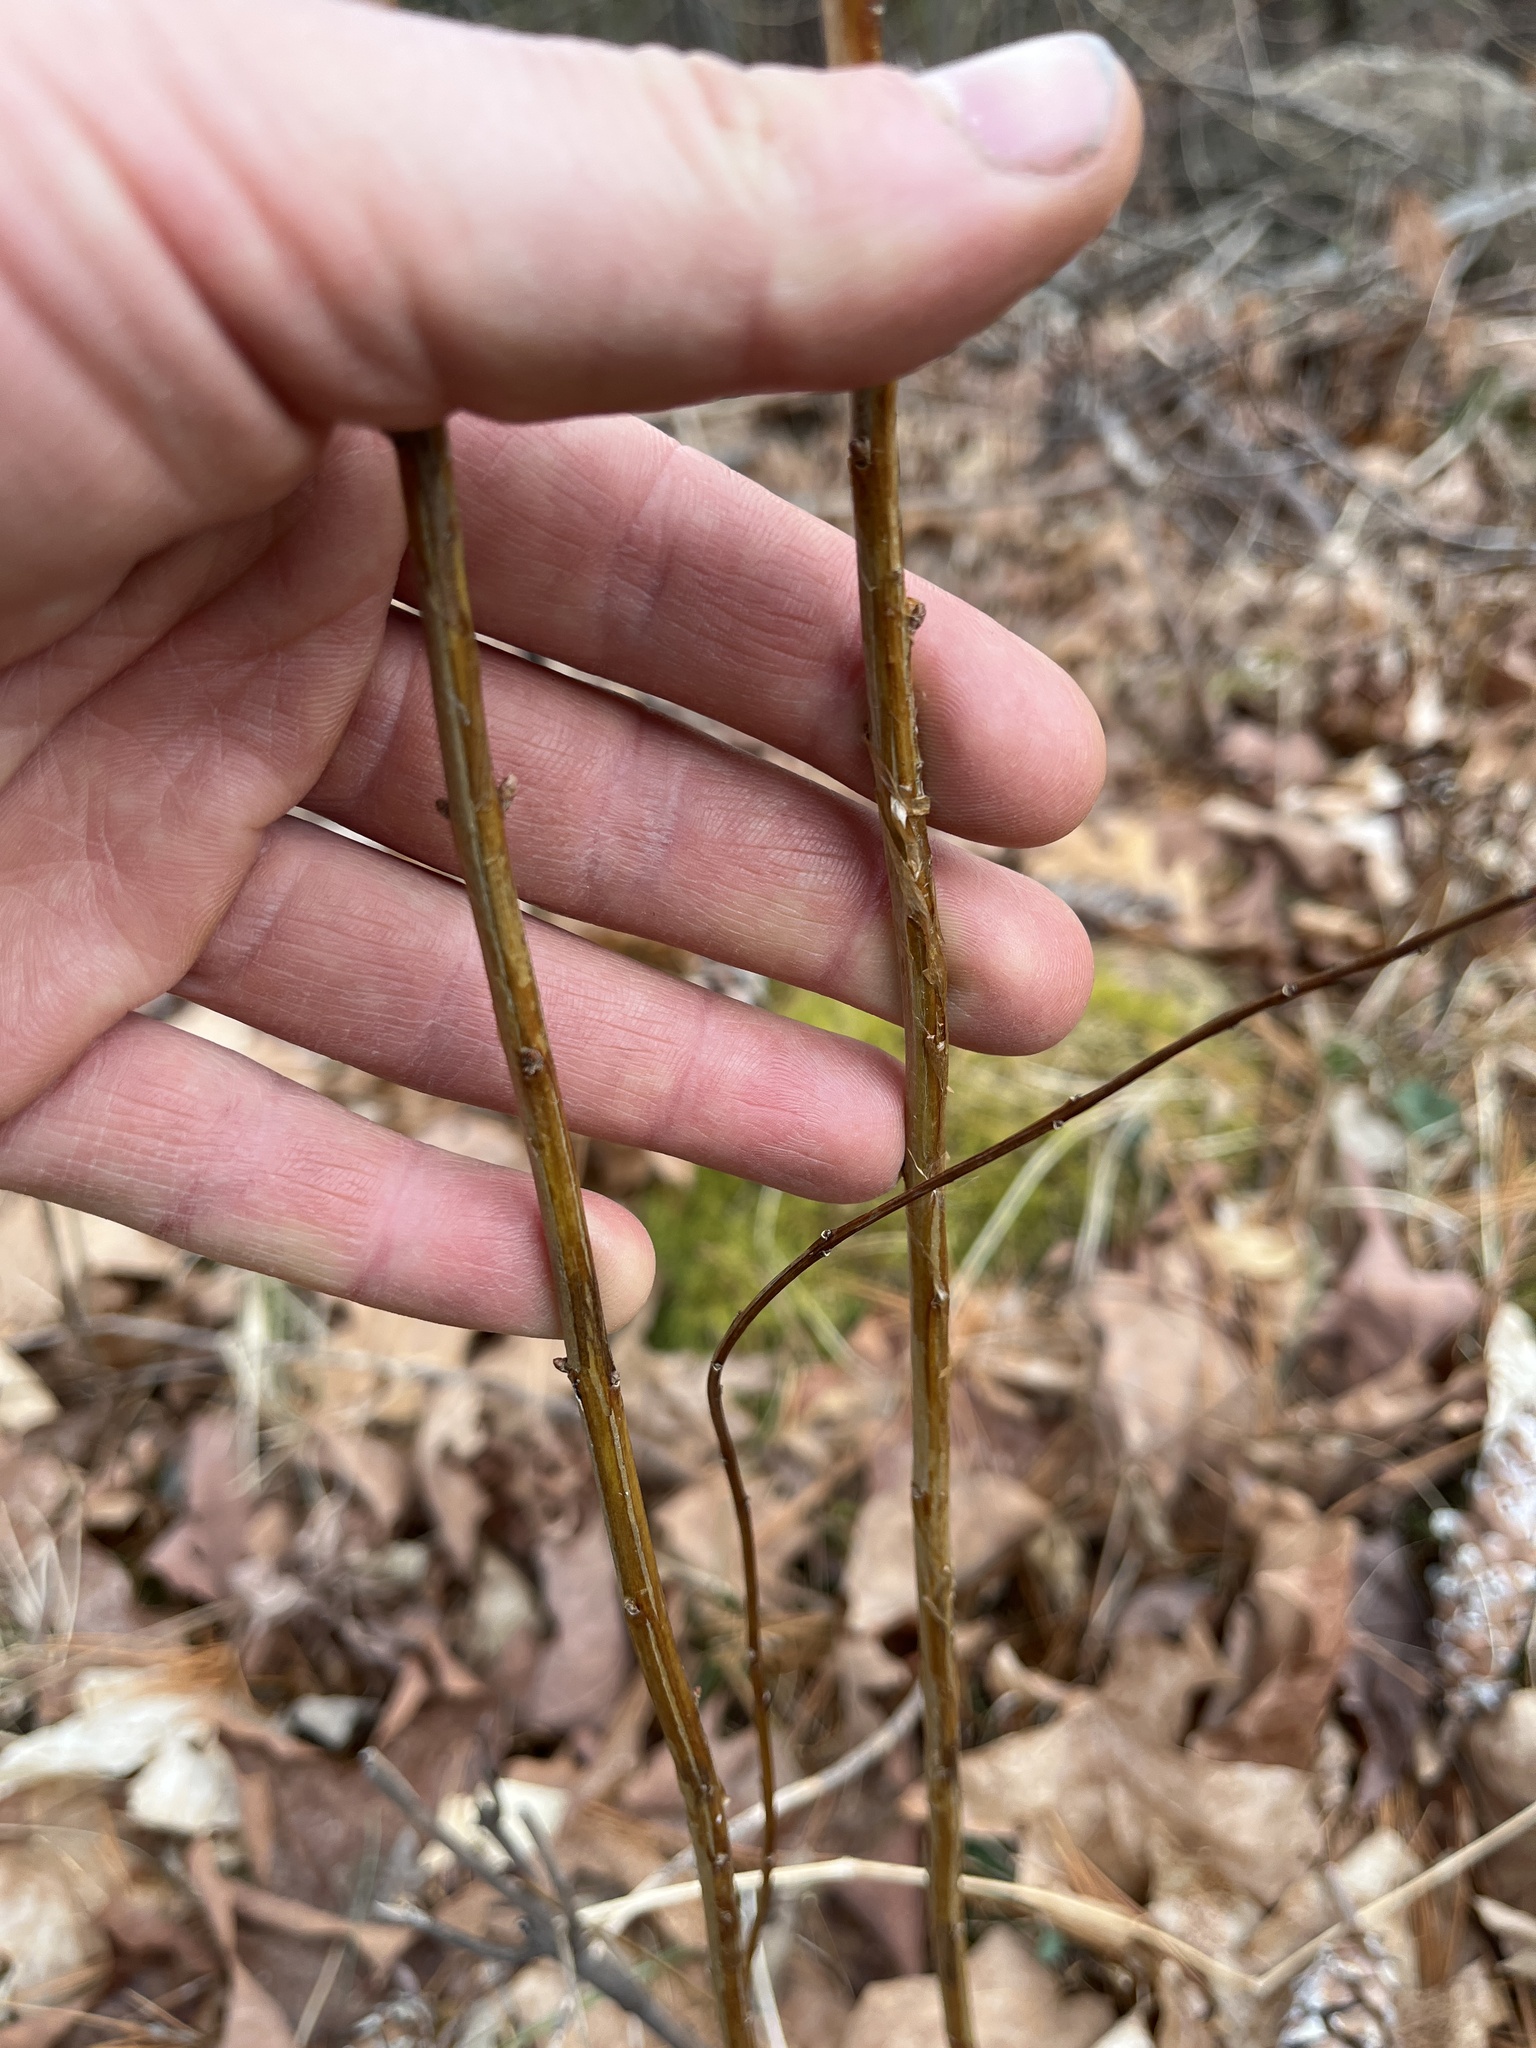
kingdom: Plantae
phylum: Tracheophyta
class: Magnoliopsida
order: Rosales
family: Rosaceae
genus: Spiraea
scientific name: Spiraea alba
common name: Pale bridewort
